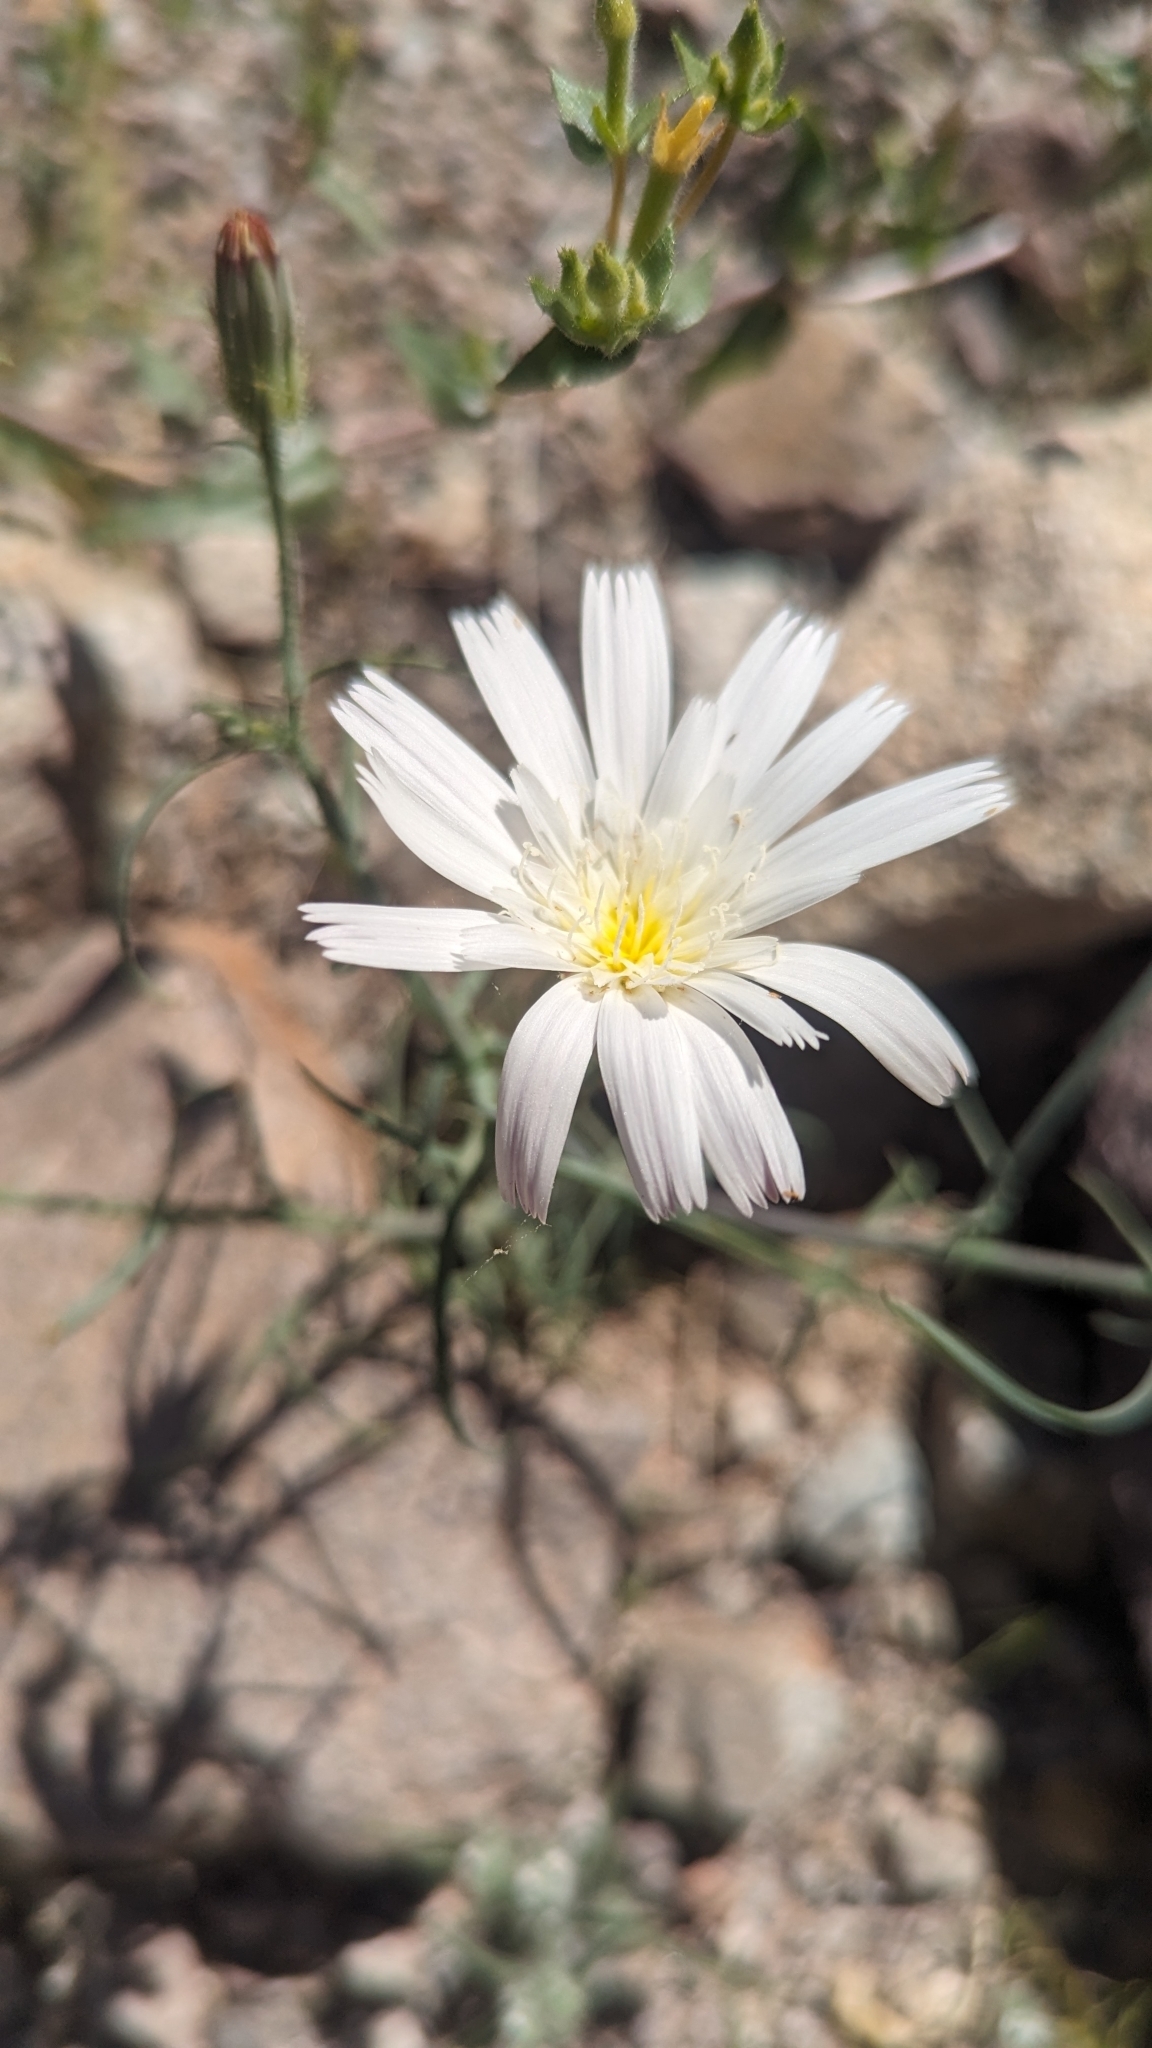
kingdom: Plantae
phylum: Tracheophyta
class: Magnoliopsida
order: Asterales
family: Asteraceae
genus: Calycoseris
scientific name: Calycoseris wrightii
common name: White tackstem
